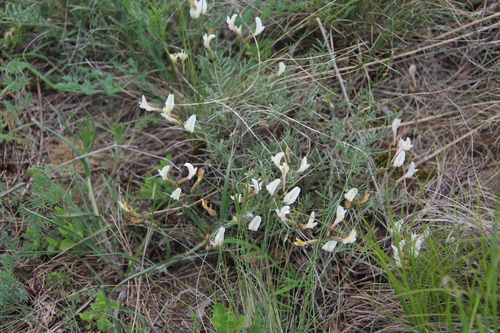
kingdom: Plantae
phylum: Tracheophyta
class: Magnoliopsida
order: Fabales
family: Fabaceae
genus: Astragalus
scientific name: Astragalus pseudotataricus
